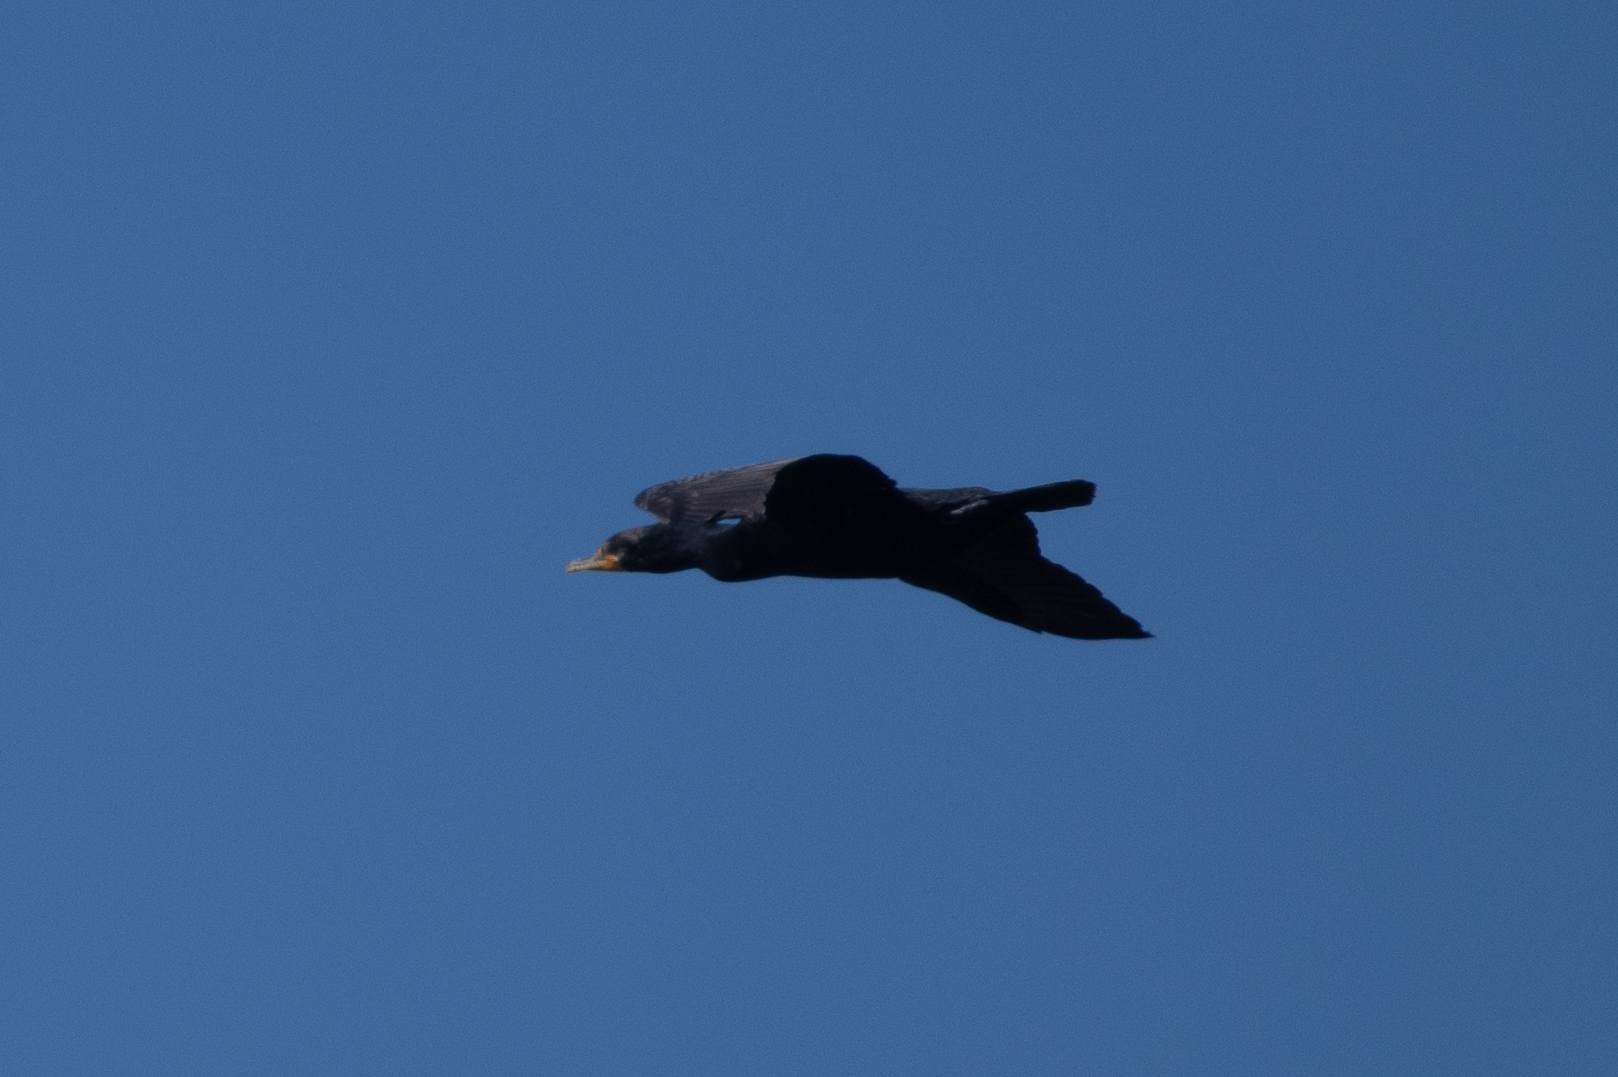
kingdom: Animalia
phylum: Chordata
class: Aves
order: Suliformes
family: Phalacrocoracidae
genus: Phalacrocorax
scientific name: Phalacrocorax auritus
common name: Double-crested cormorant
